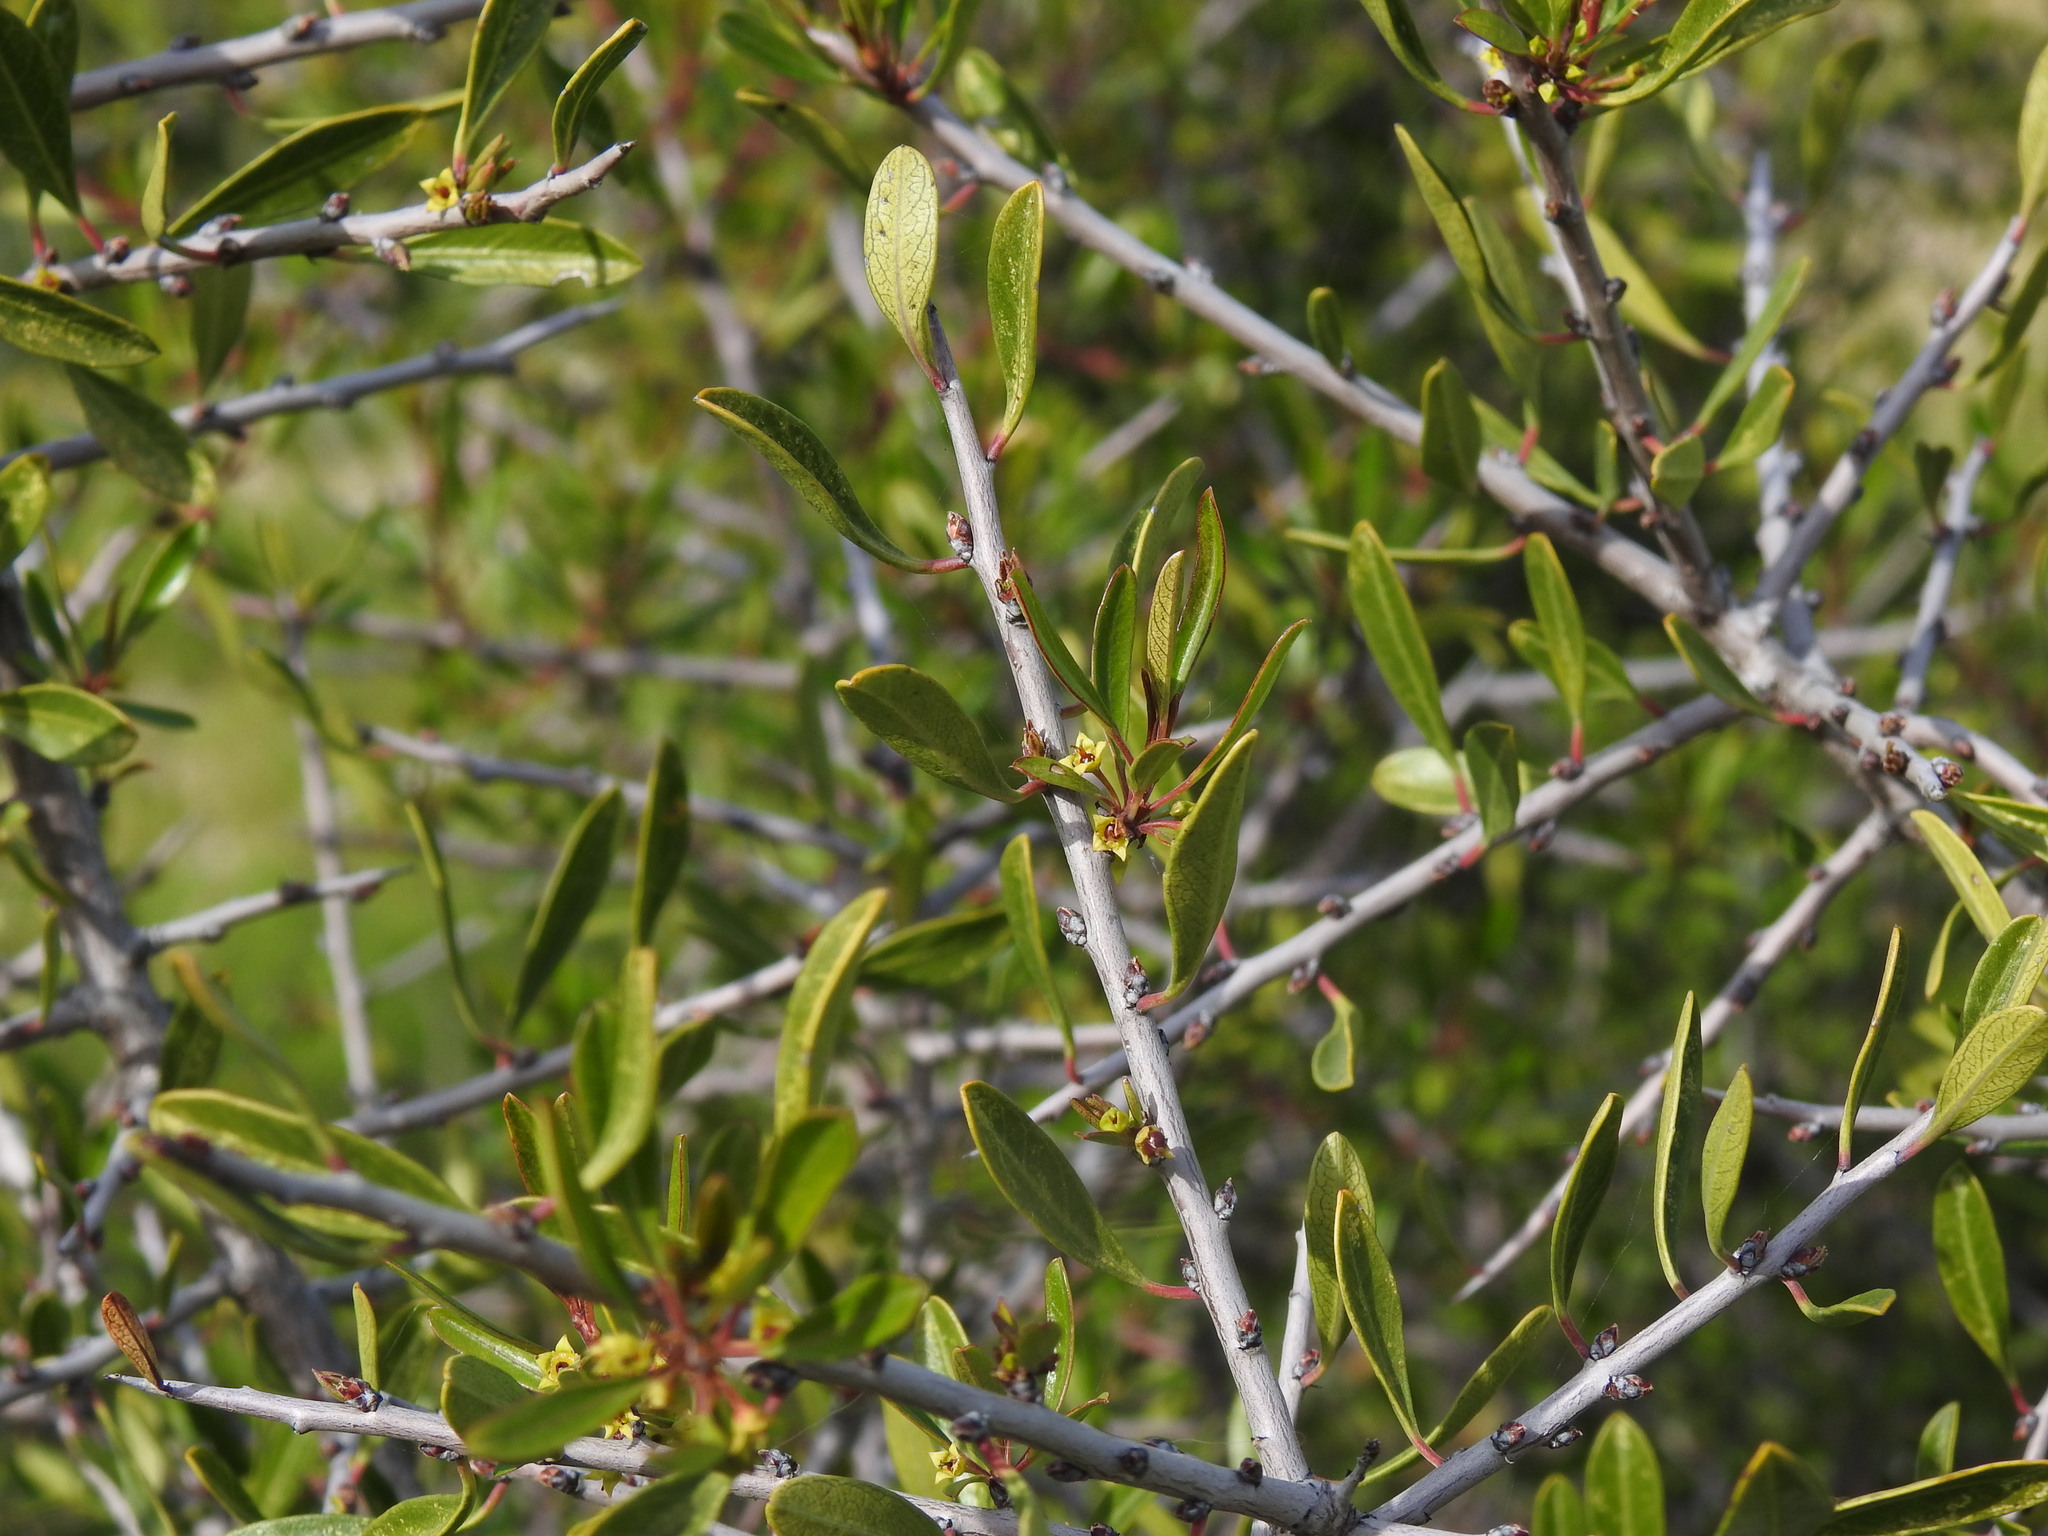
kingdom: Plantae
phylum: Tracheophyta
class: Magnoliopsida
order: Rosales
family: Rhamnaceae
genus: Rhamnus
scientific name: Rhamnus oleoides
